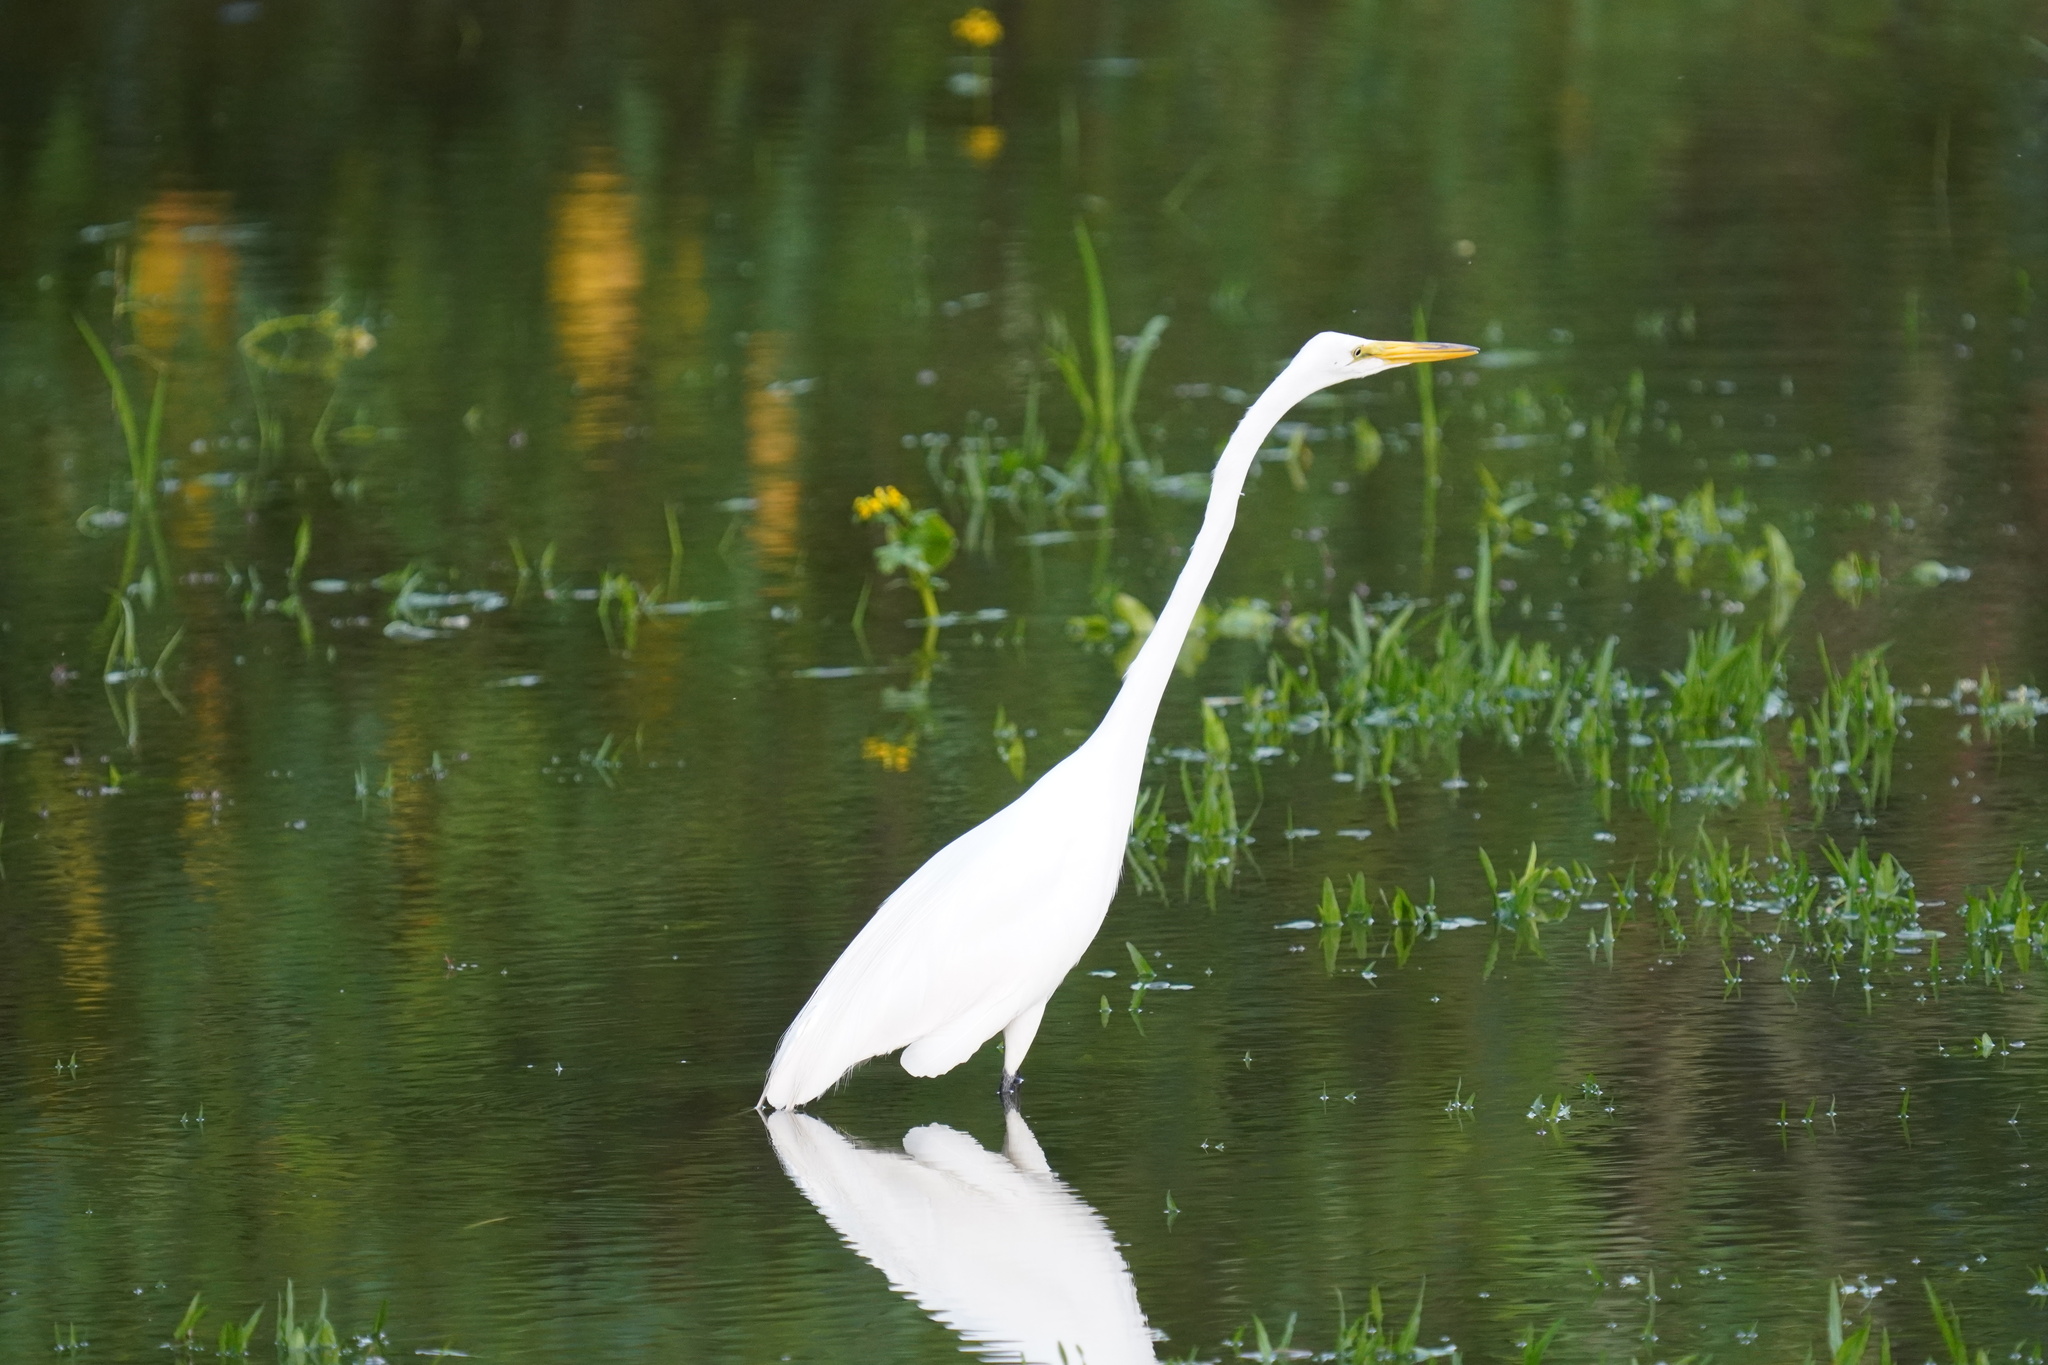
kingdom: Animalia
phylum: Chordata
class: Aves
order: Pelecaniformes
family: Ardeidae
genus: Ardea
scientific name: Ardea alba
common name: Great egret
